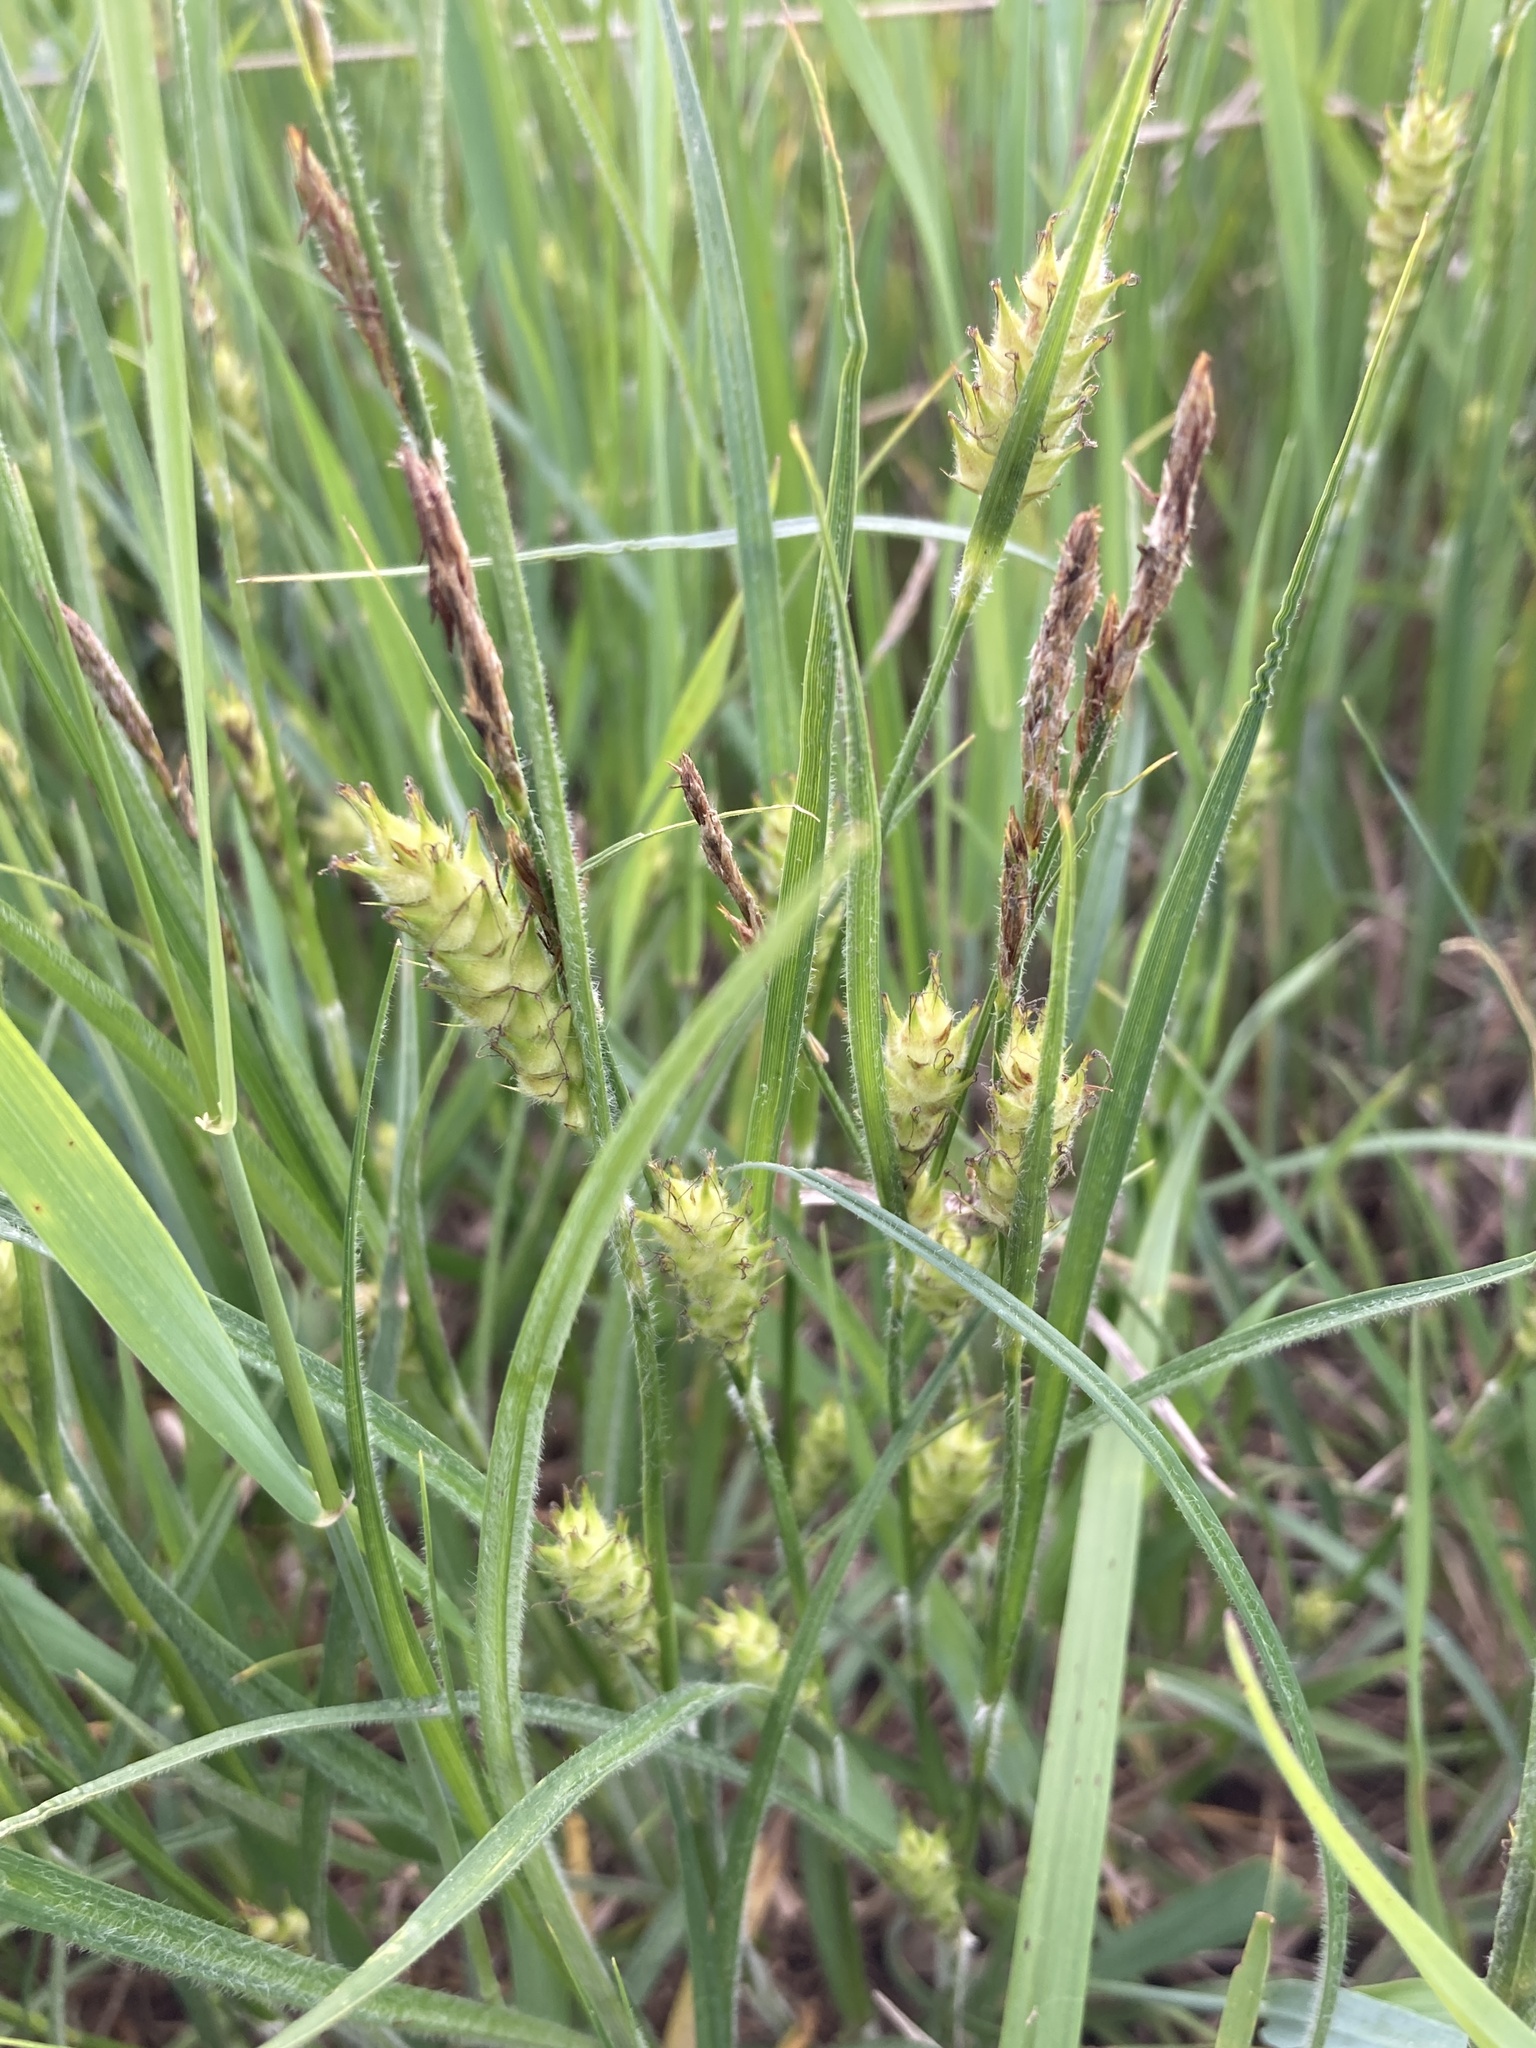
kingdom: Plantae
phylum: Tracheophyta
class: Liliopsida
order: Poales
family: Cyperaceae
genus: Carex
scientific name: Carex hirta
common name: Hairy sedge
